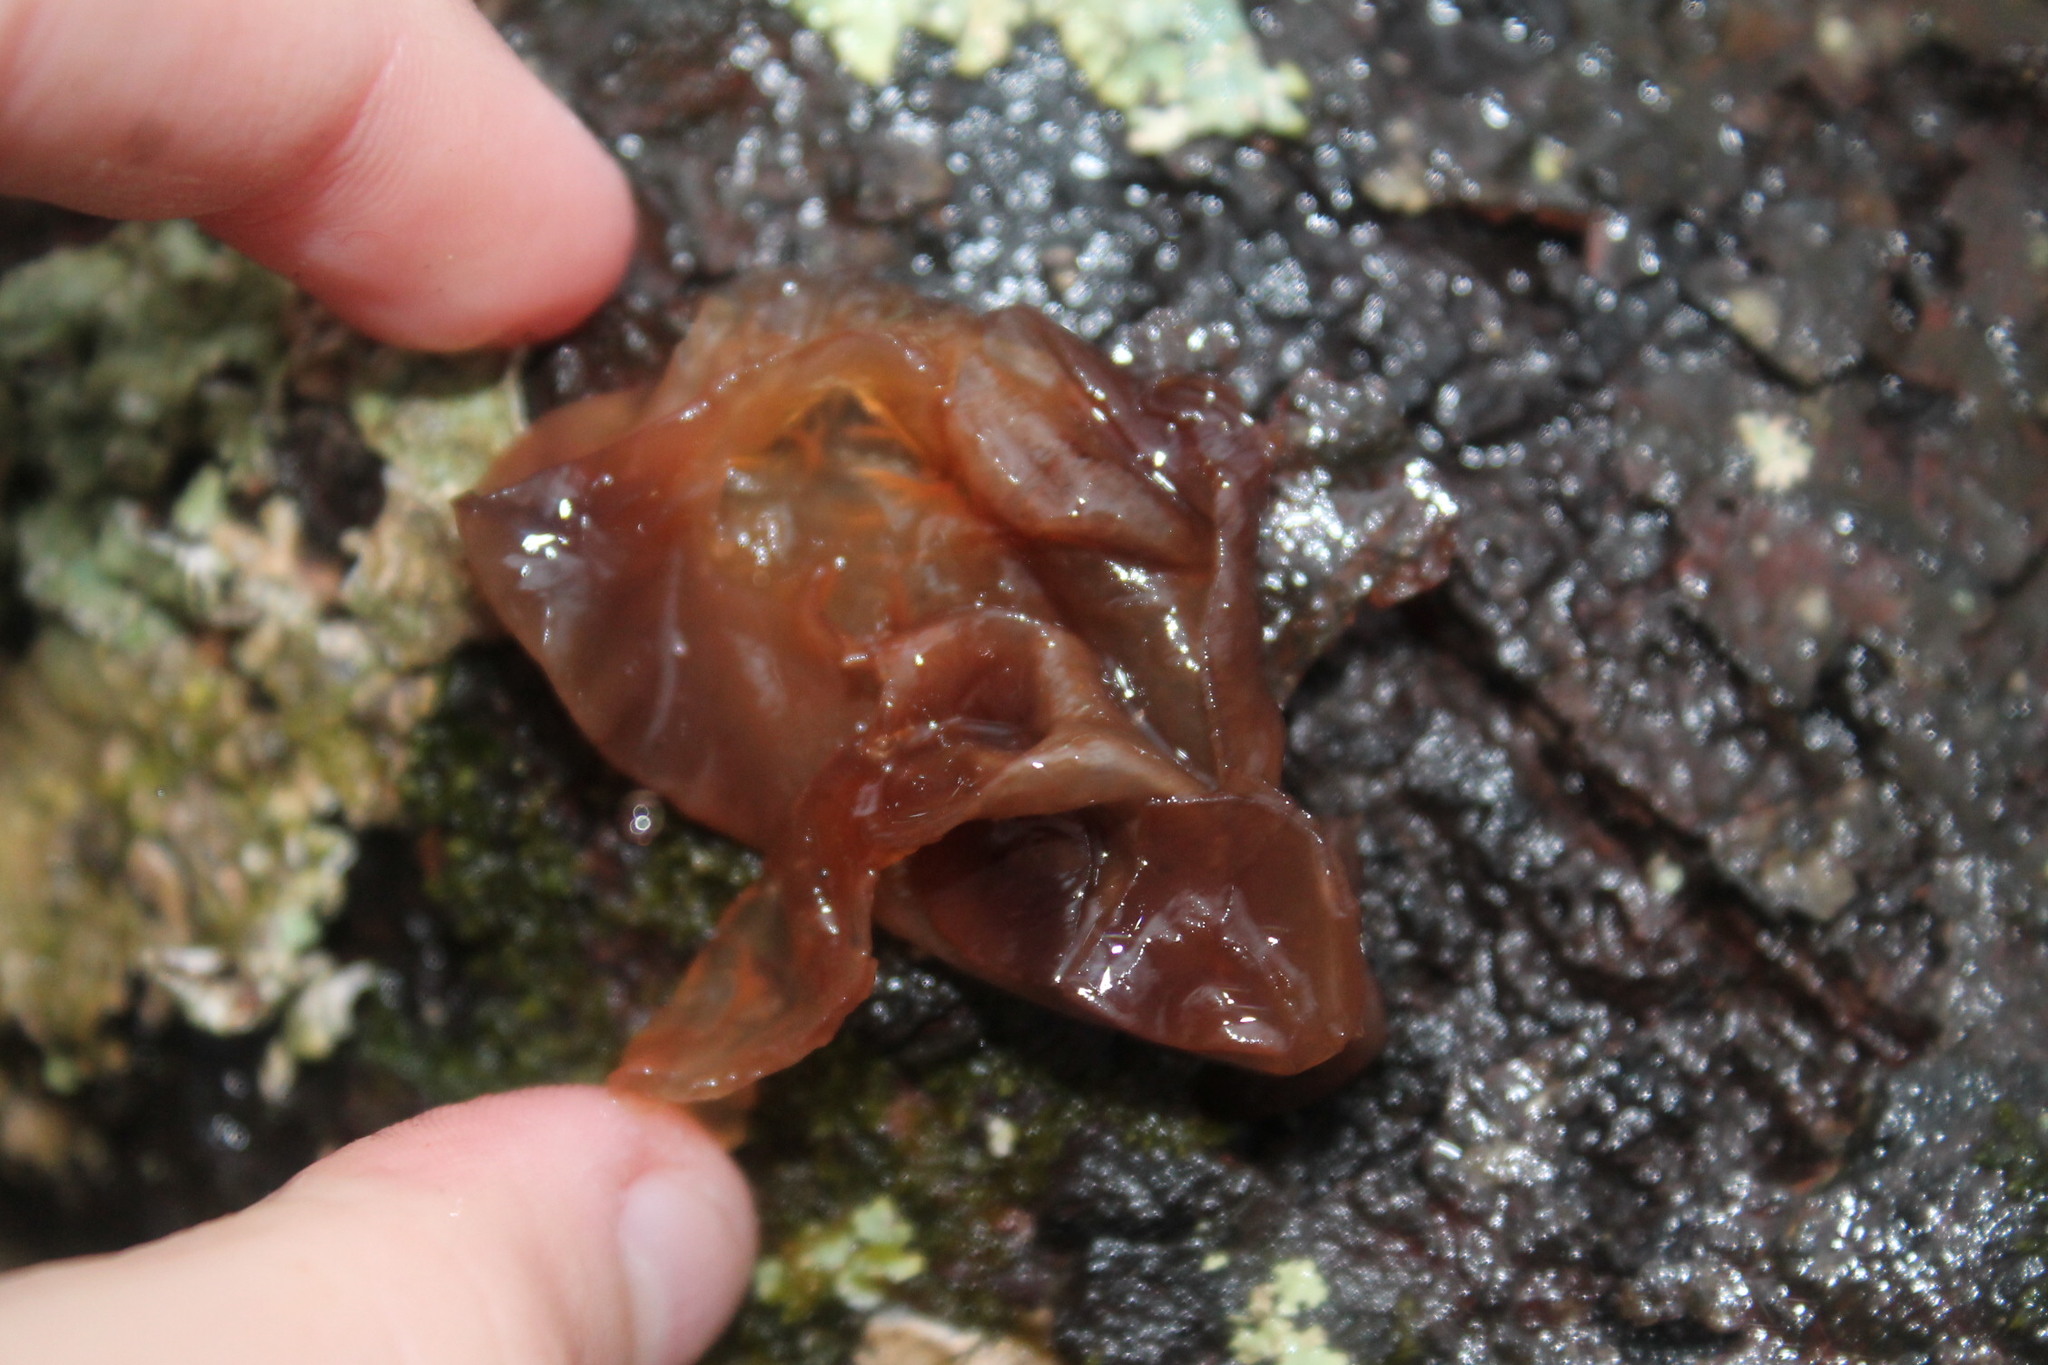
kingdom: Fungi
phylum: Basidiomycota
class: Tremellomycetes
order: Tremellales
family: Tremellaceae
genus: Phaeotremella
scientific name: Phaeotremella foliacea
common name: Leafy brain
